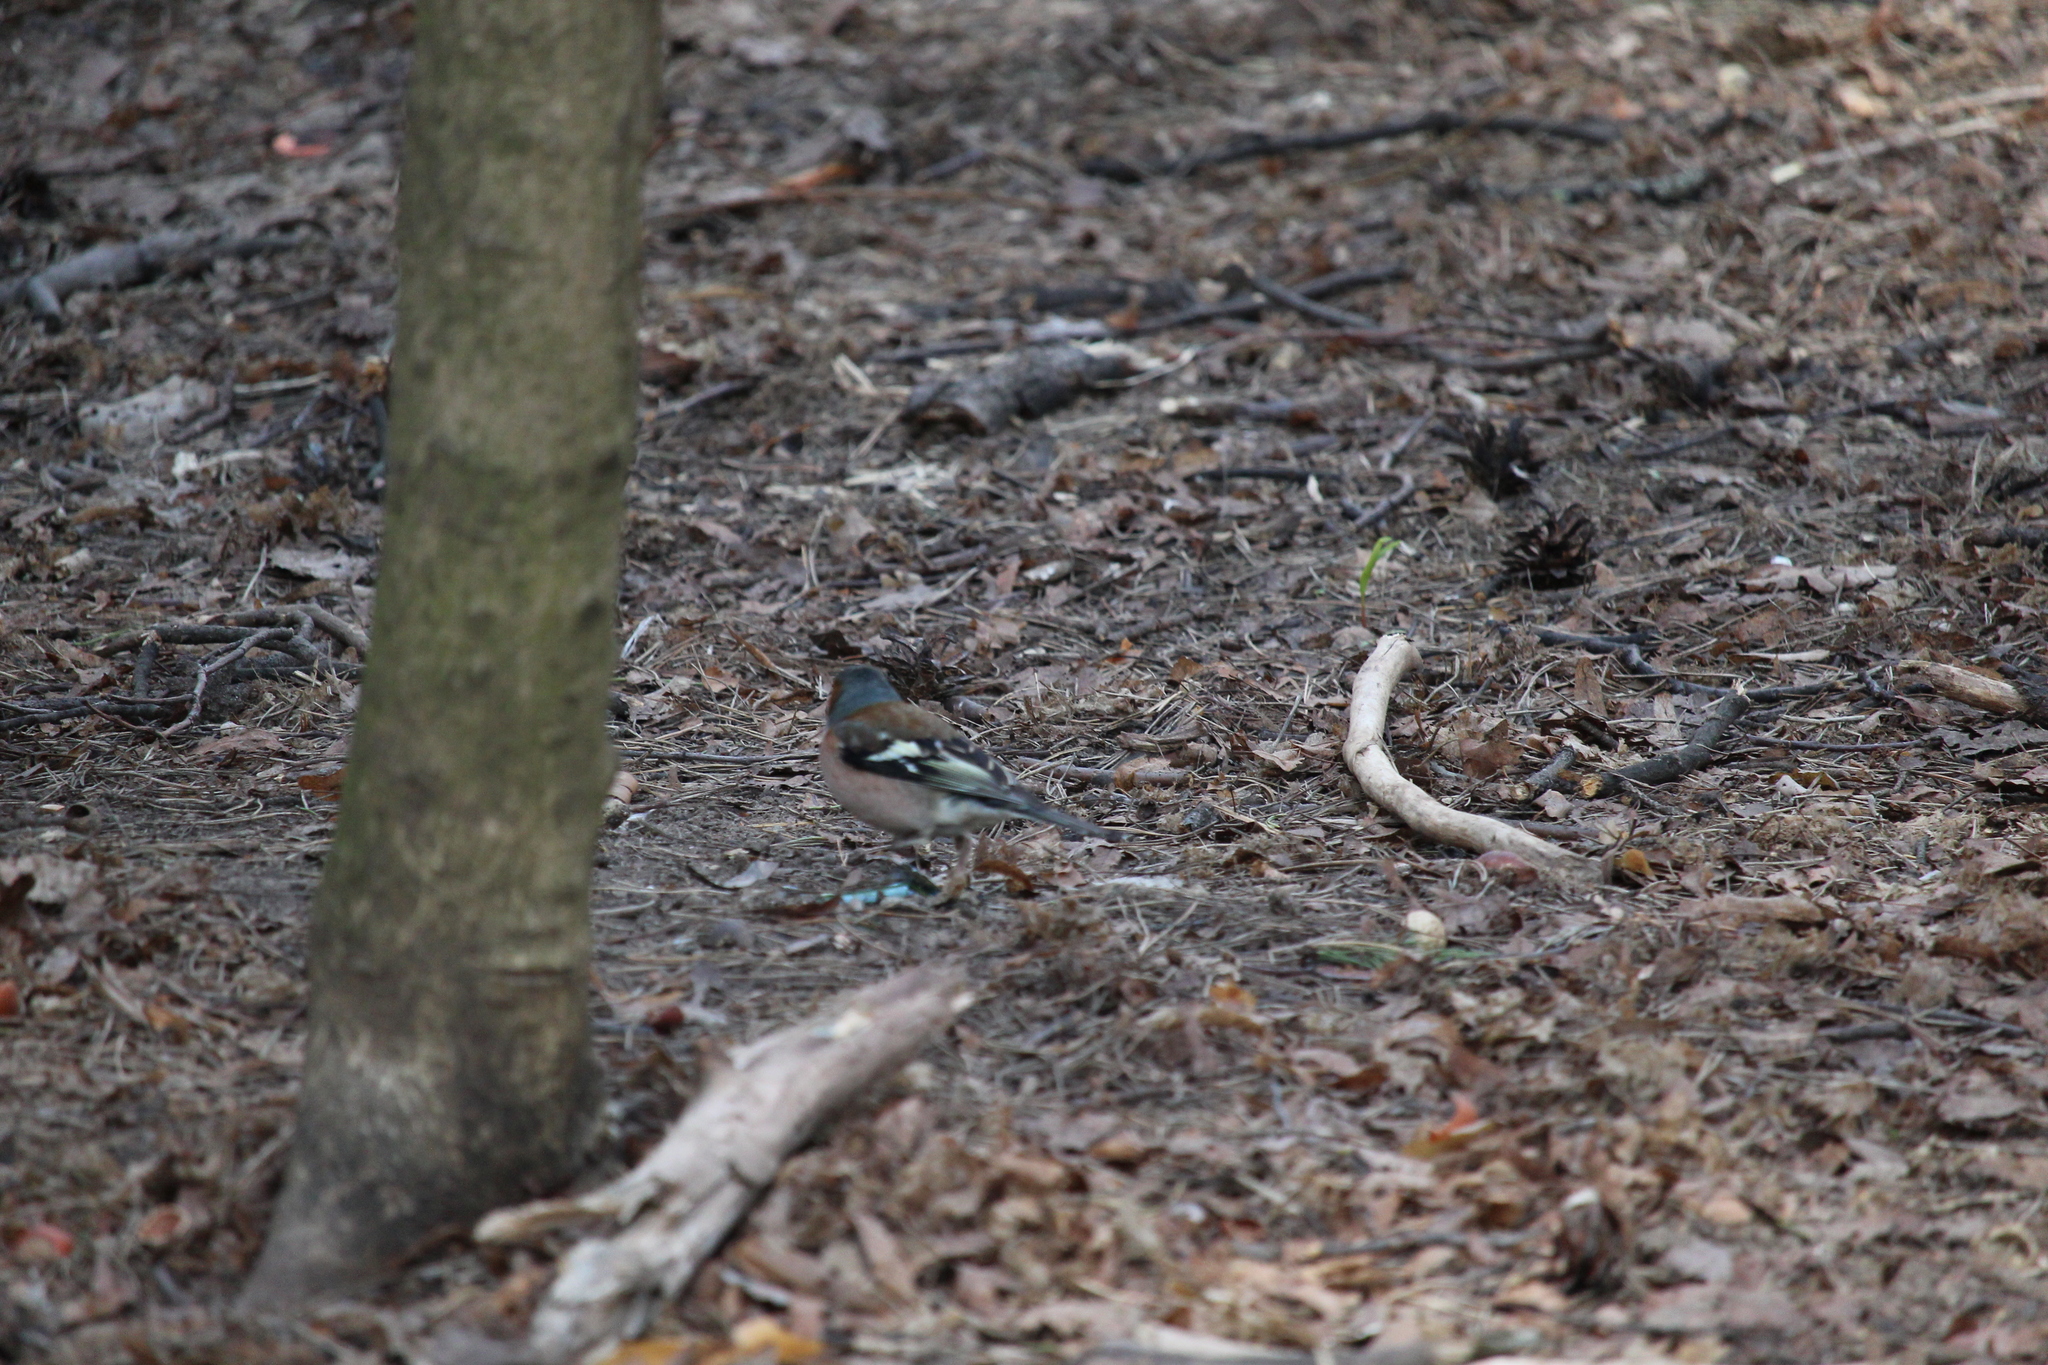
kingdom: Animalia
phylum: Chordata
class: Aves
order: Passeriformes
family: Fringillidae
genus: Fringilla
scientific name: Fringilla coelebs
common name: Common chaffinch
